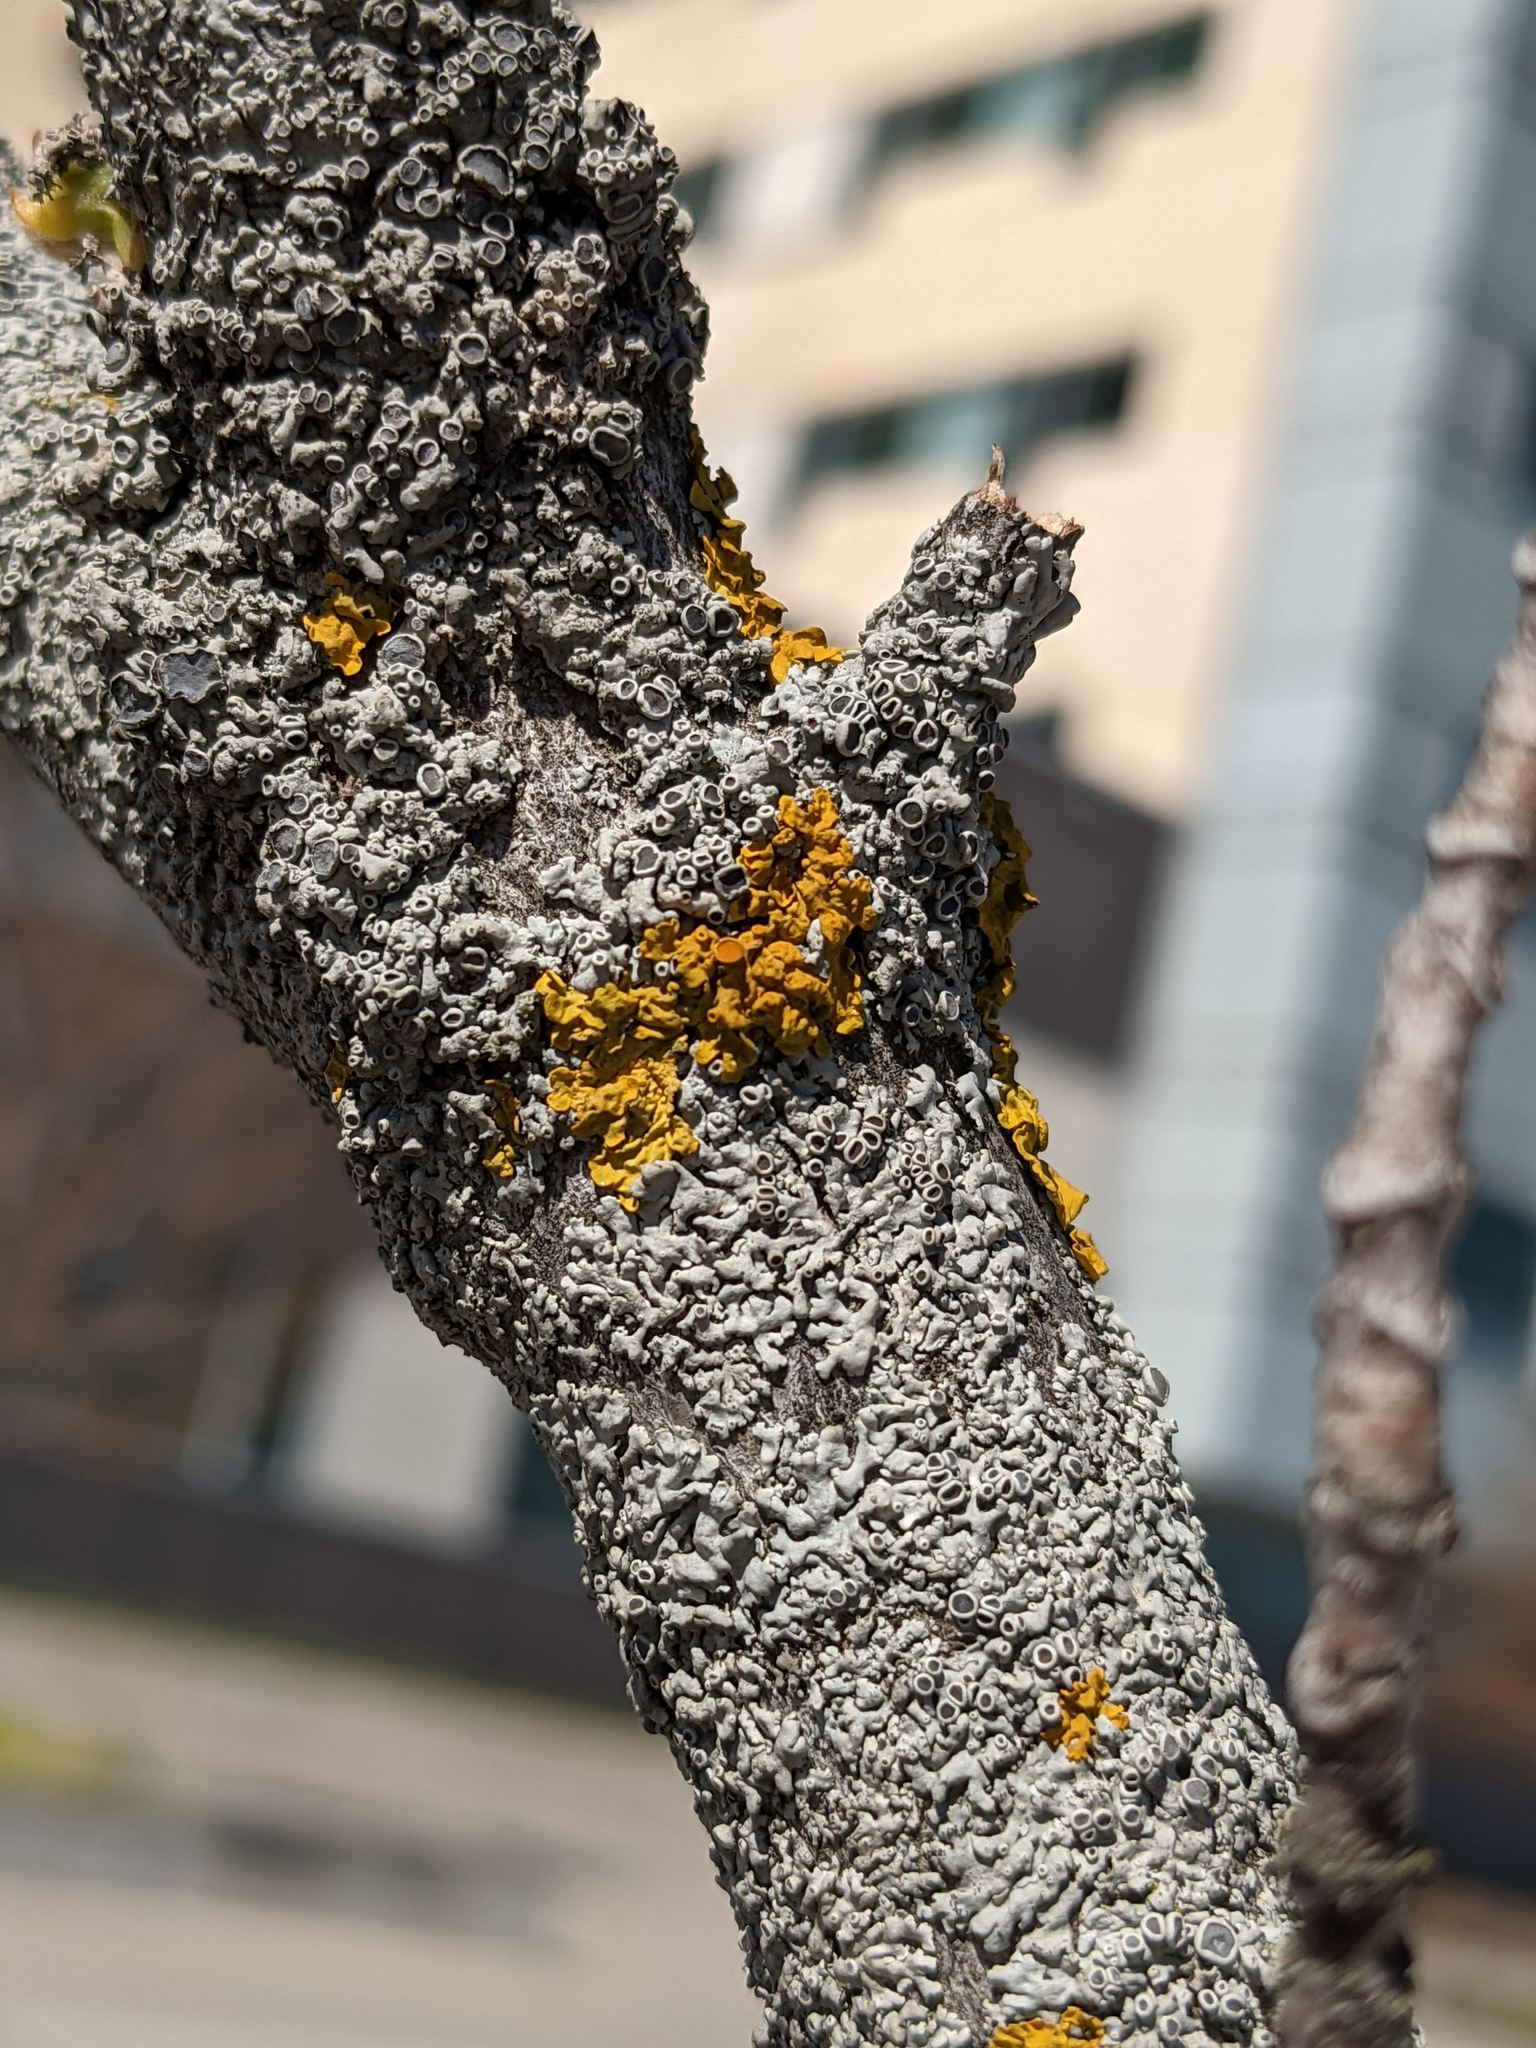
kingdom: Fungi
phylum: Ascomycota
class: Lecanoromycetes
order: Teloschistales
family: Teloschistaceae
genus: Xanthoria
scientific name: Xanthoria parietina
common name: Common orange lichen
